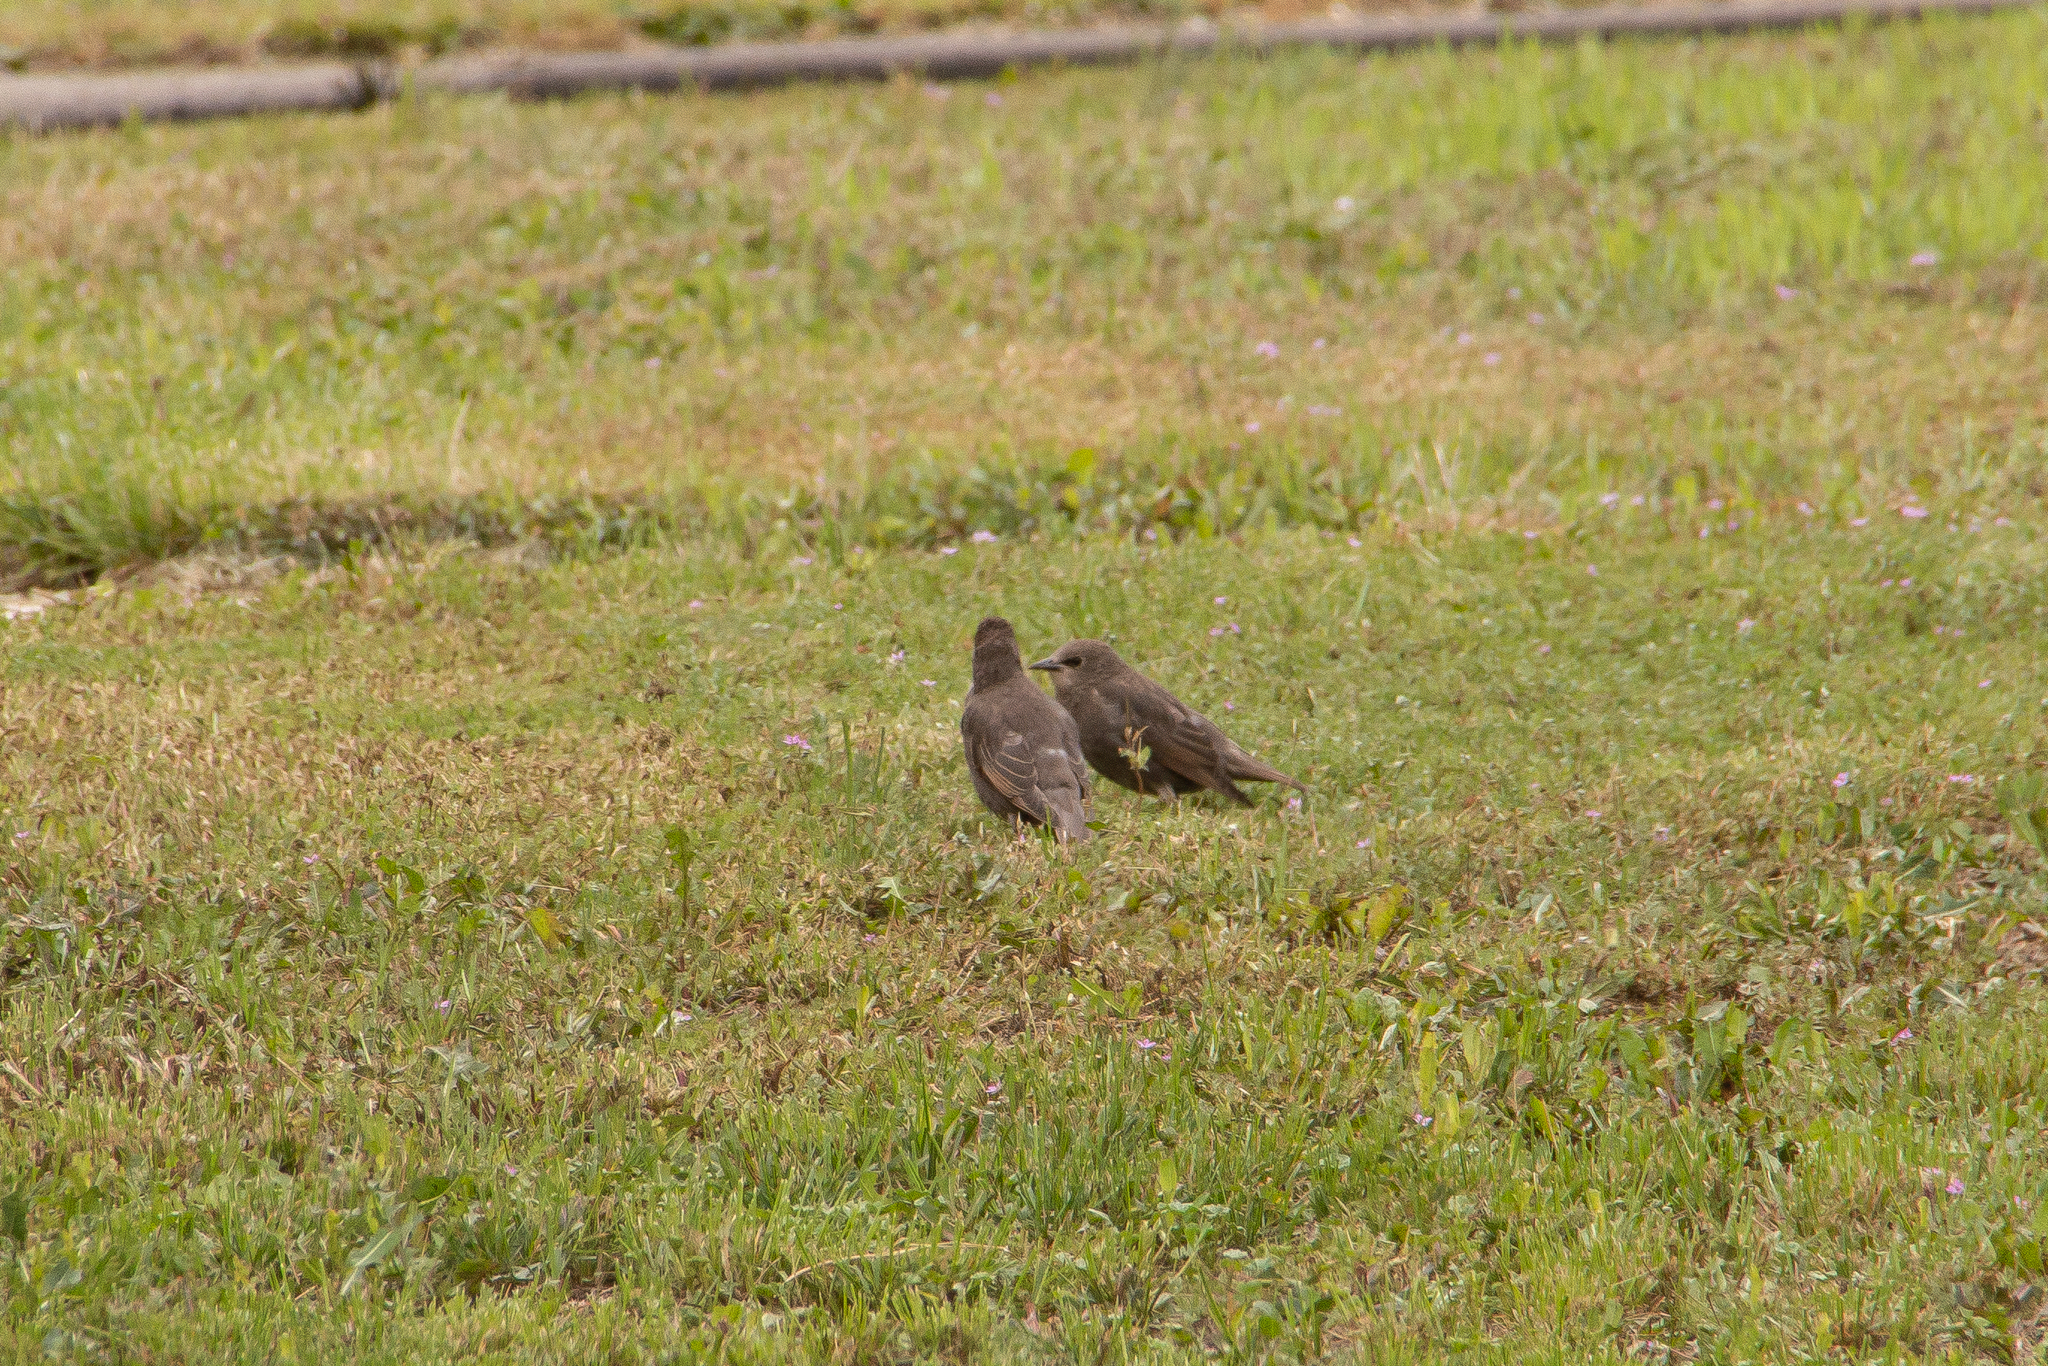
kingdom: Animalia
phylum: Chordata
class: Aves
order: Passeriformes
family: Sturnidae
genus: Sturnus
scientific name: Sturnus vulgaris
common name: Common starling
